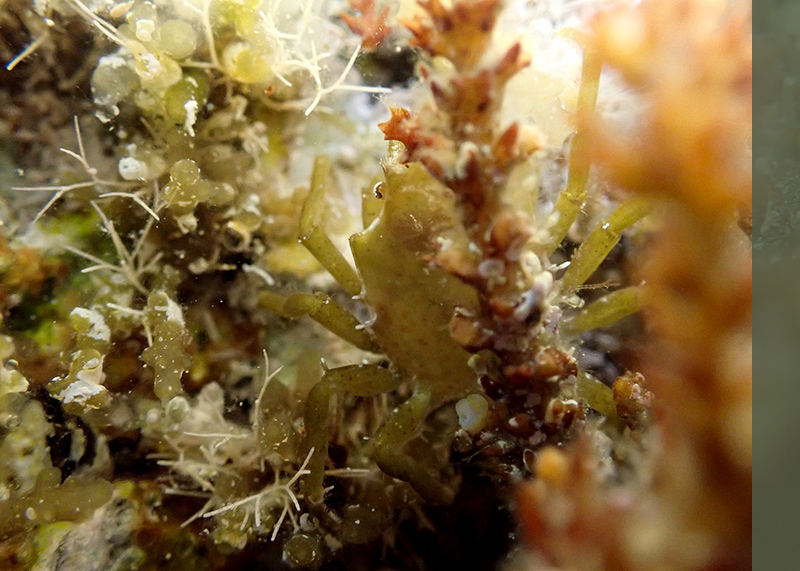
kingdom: Animalia
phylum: Arthropoda
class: Malacostraca
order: Decapoda
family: Epialtidae
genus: Acanthonyx
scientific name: Acanthonyx lunulatus
